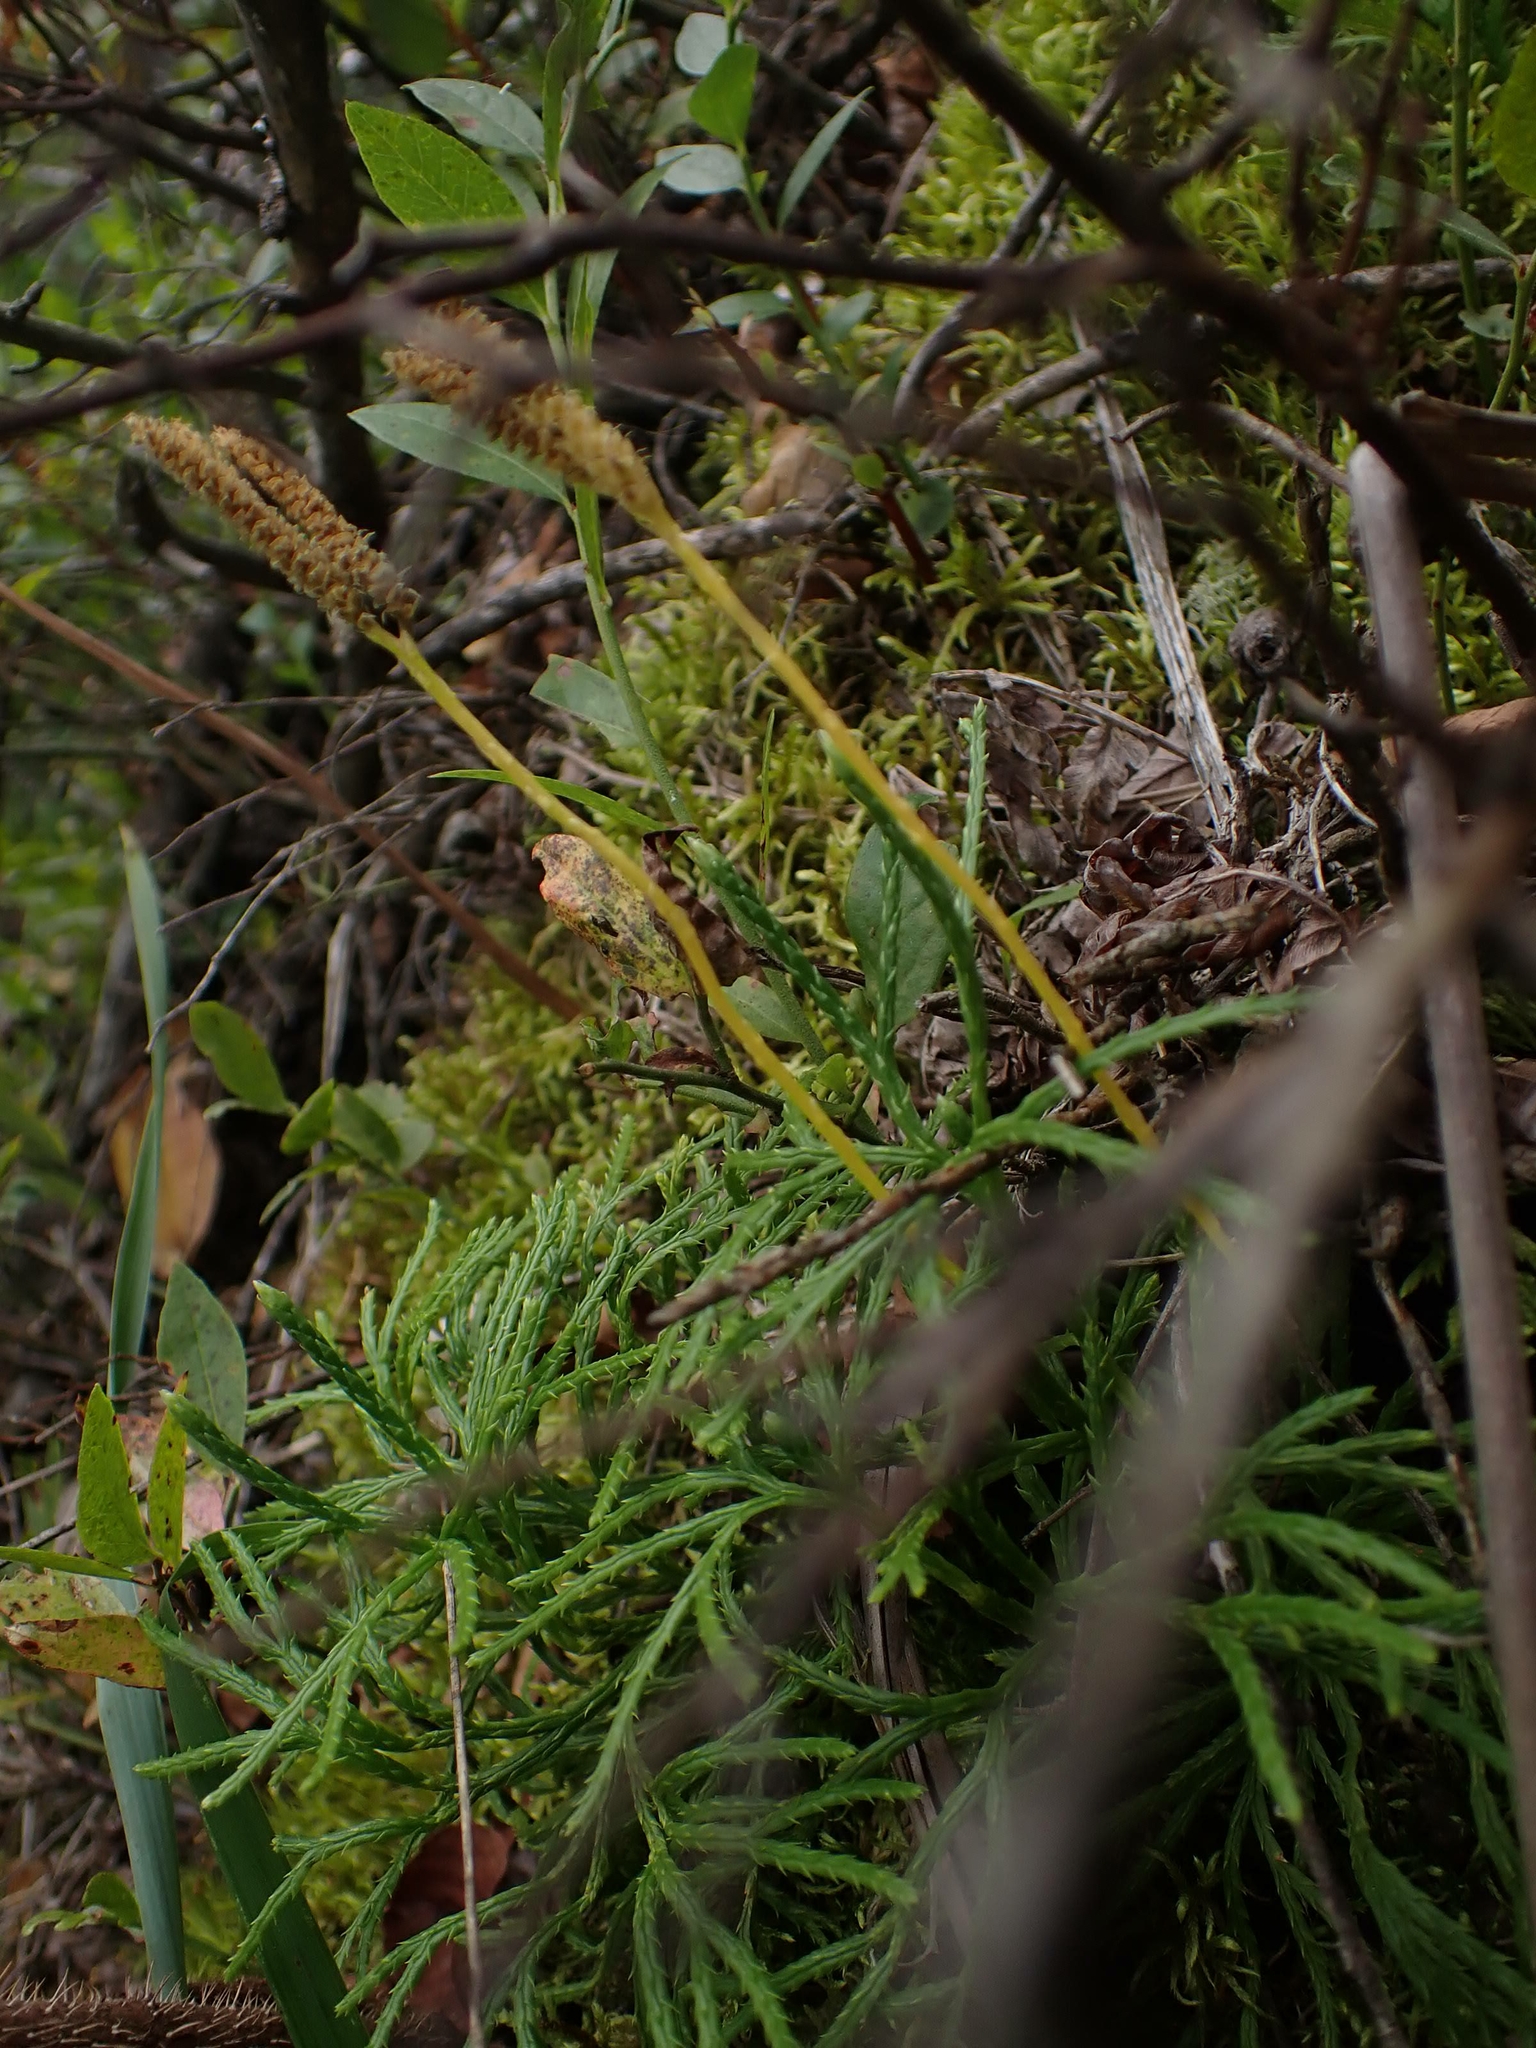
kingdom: Plantae
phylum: Tracheophyta
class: Lycopodiopsida
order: Lycopodiales
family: Lycopodiaceae
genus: Diphasiastrum
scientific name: Diphasiastrum complanatum
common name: Northern running-pine
